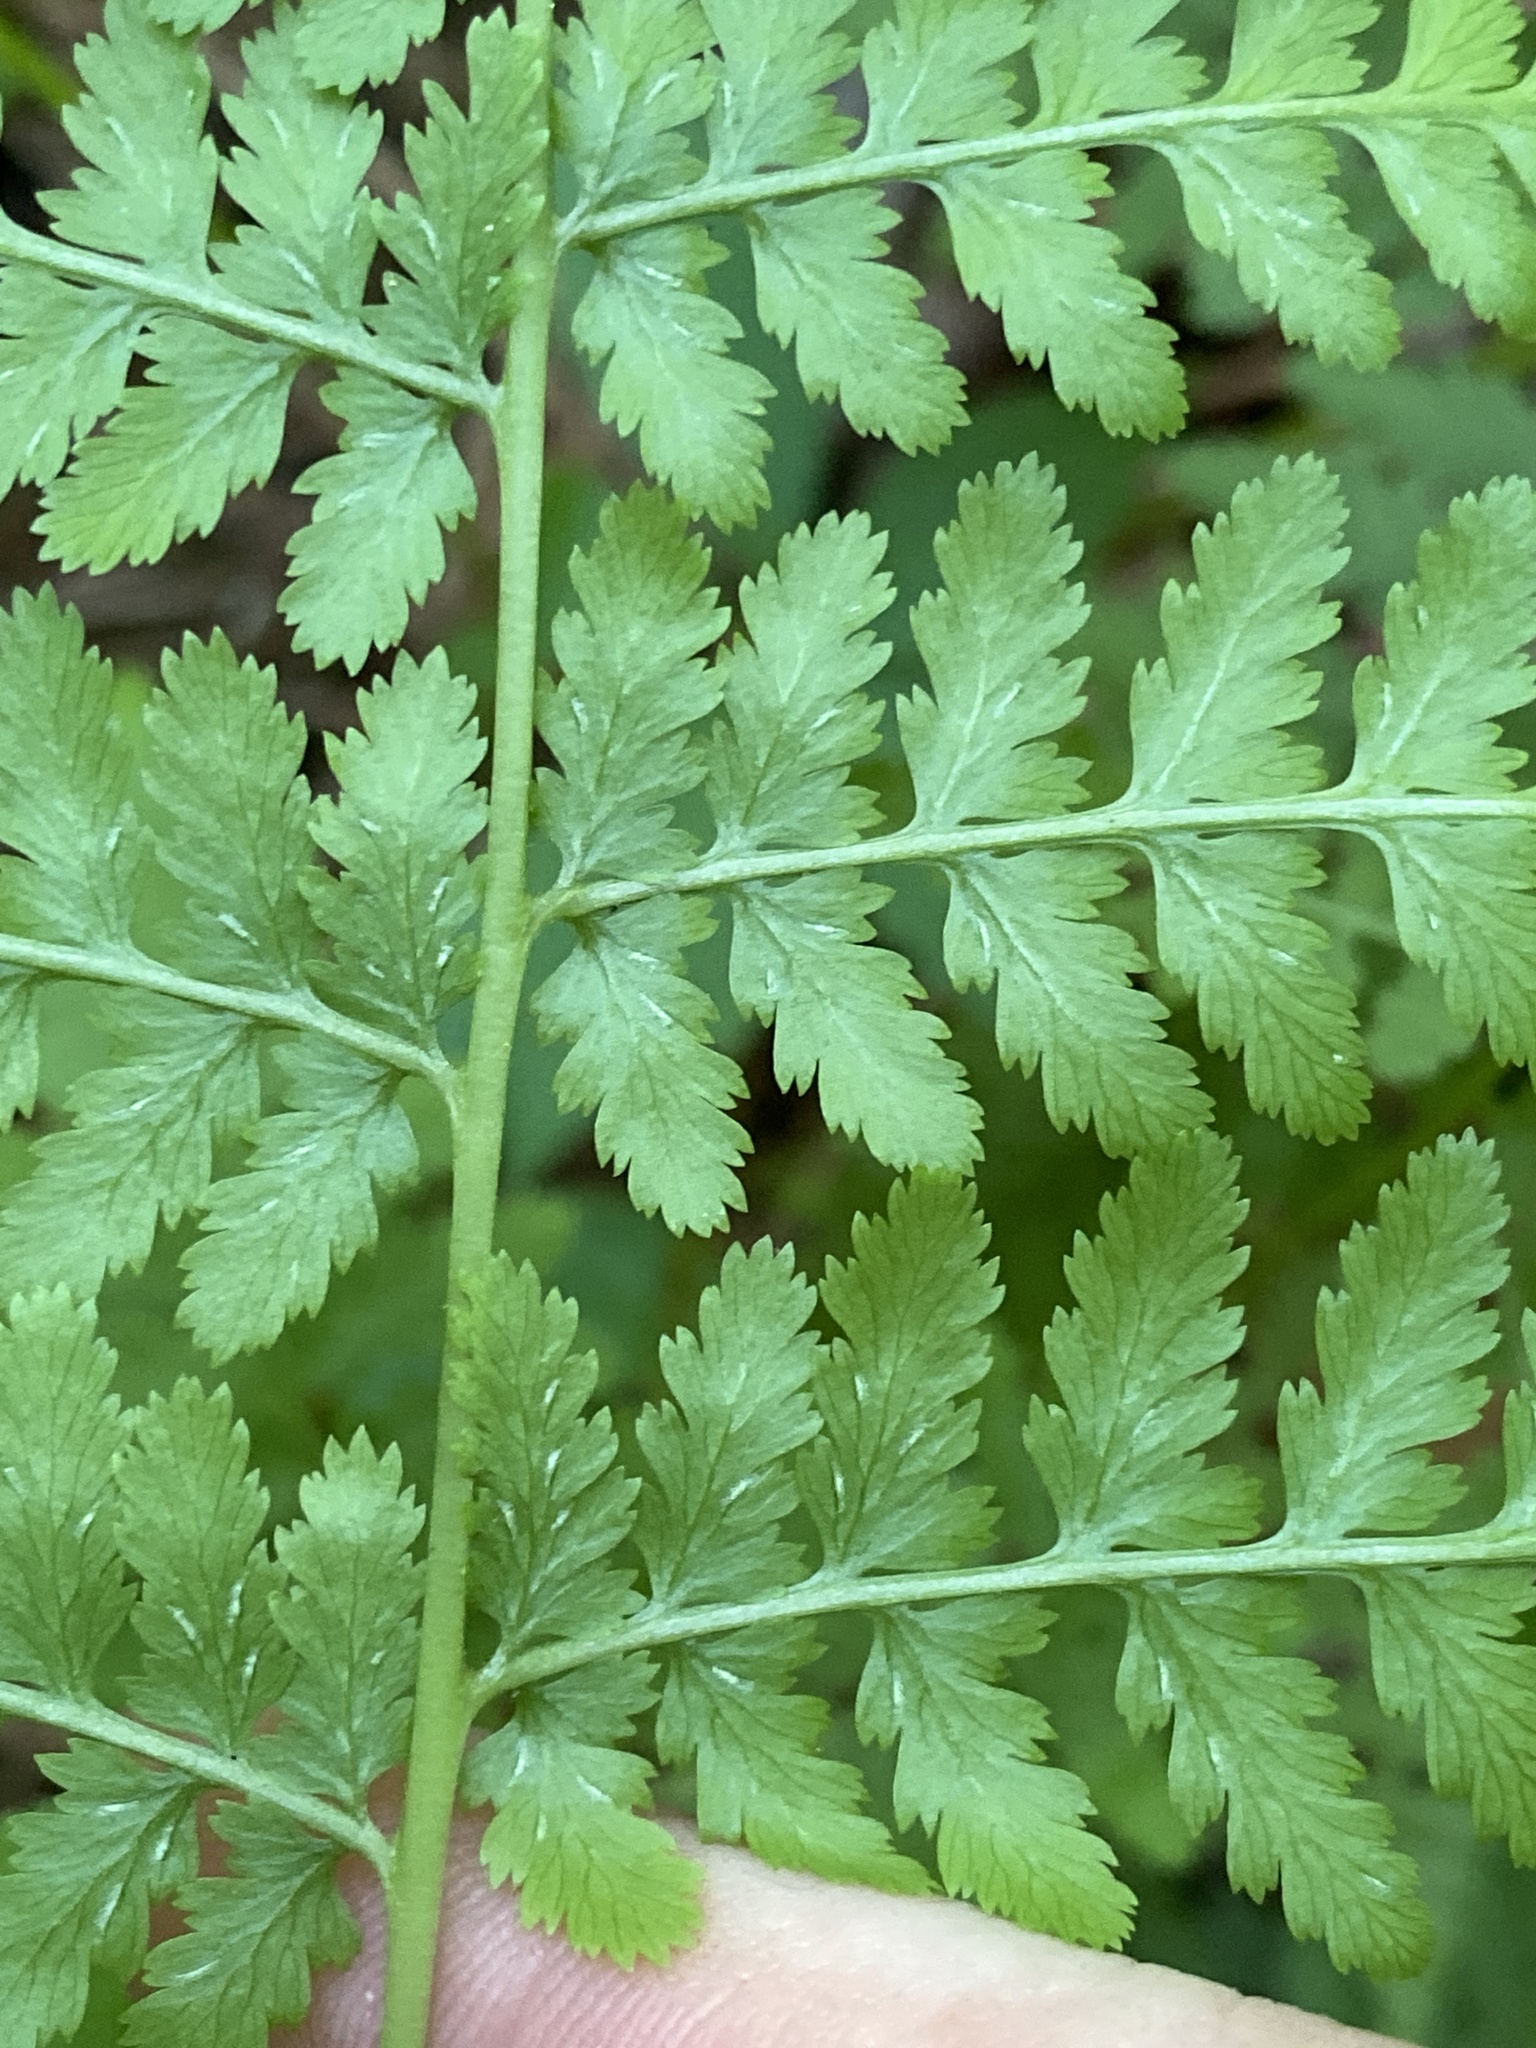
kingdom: Plantae
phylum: Tracheophyta
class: Polypodiopsida
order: Polypodiales
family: Athyriaceae
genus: Athyrium
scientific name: Athyrium asplenioides
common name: Southern lady fern
